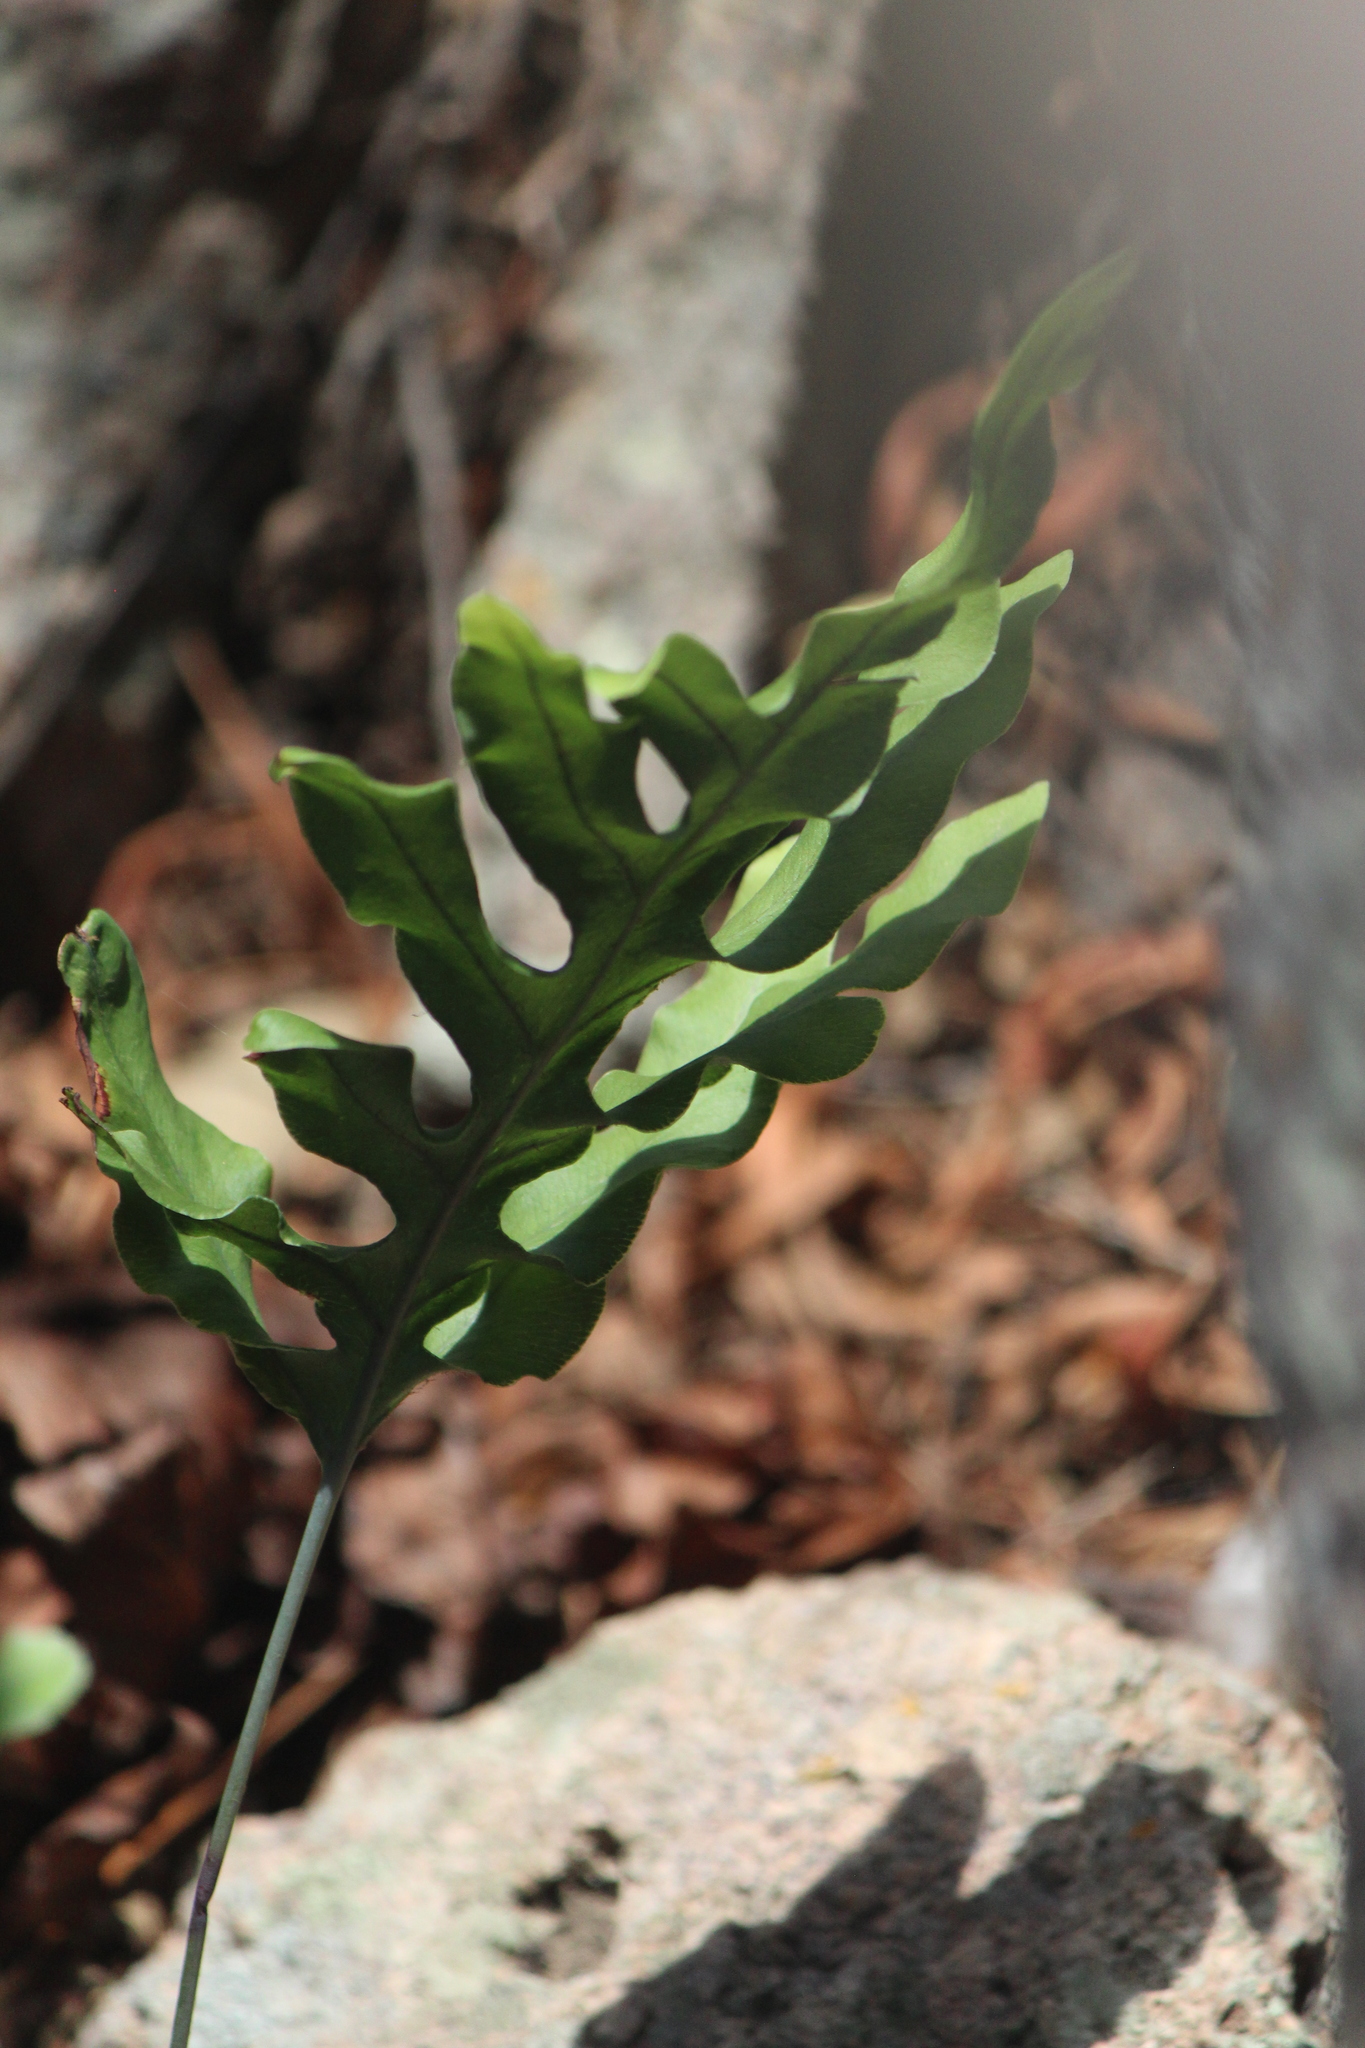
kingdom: Plantae
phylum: Tracheophyta
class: Polypodiopsida
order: Polypodiales
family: Polypodiaceae
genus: Phlebodium
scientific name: Phlebodium pseudoaureum
